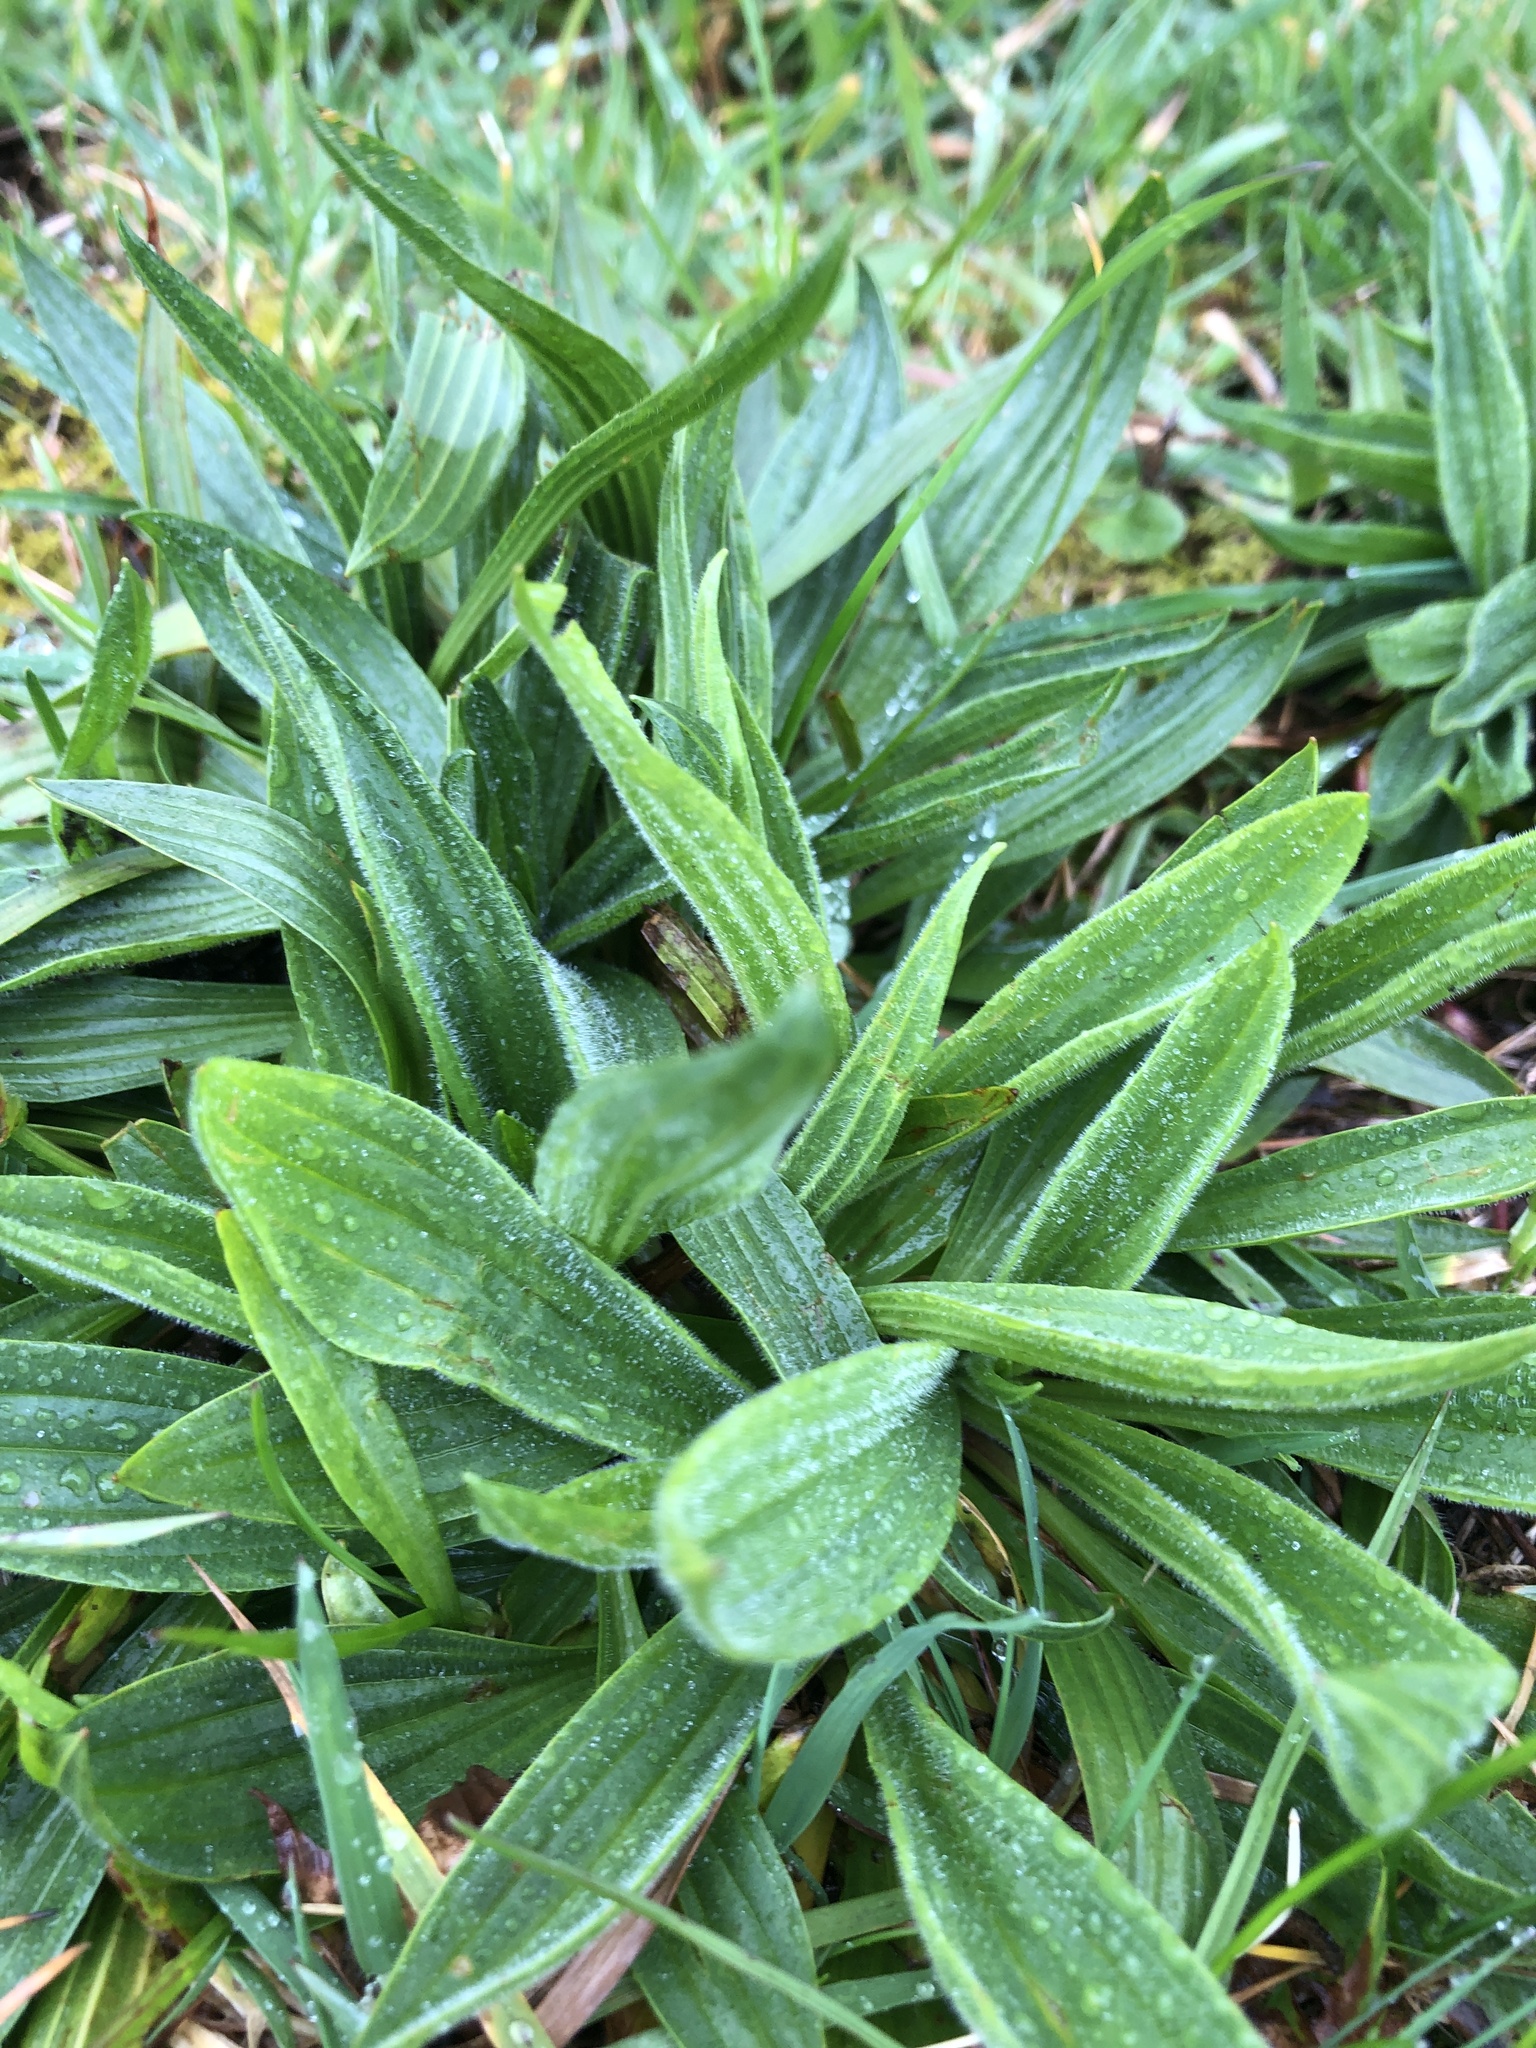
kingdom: Plantae
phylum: Tracheophyta
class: Magnoliopsida
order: Lamiales
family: Plantaginaceae
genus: Plantago
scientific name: Plantago lanceolata
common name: Ribwort plantain
